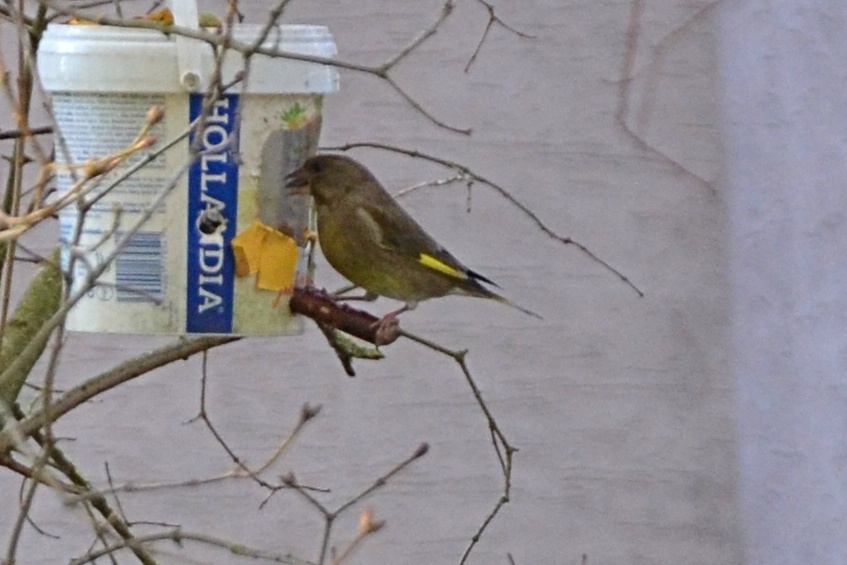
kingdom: Plantae
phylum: Tracheophyta
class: Liliopsida
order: Poales
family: Poaceae
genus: Chloris
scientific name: Chloris chloris
